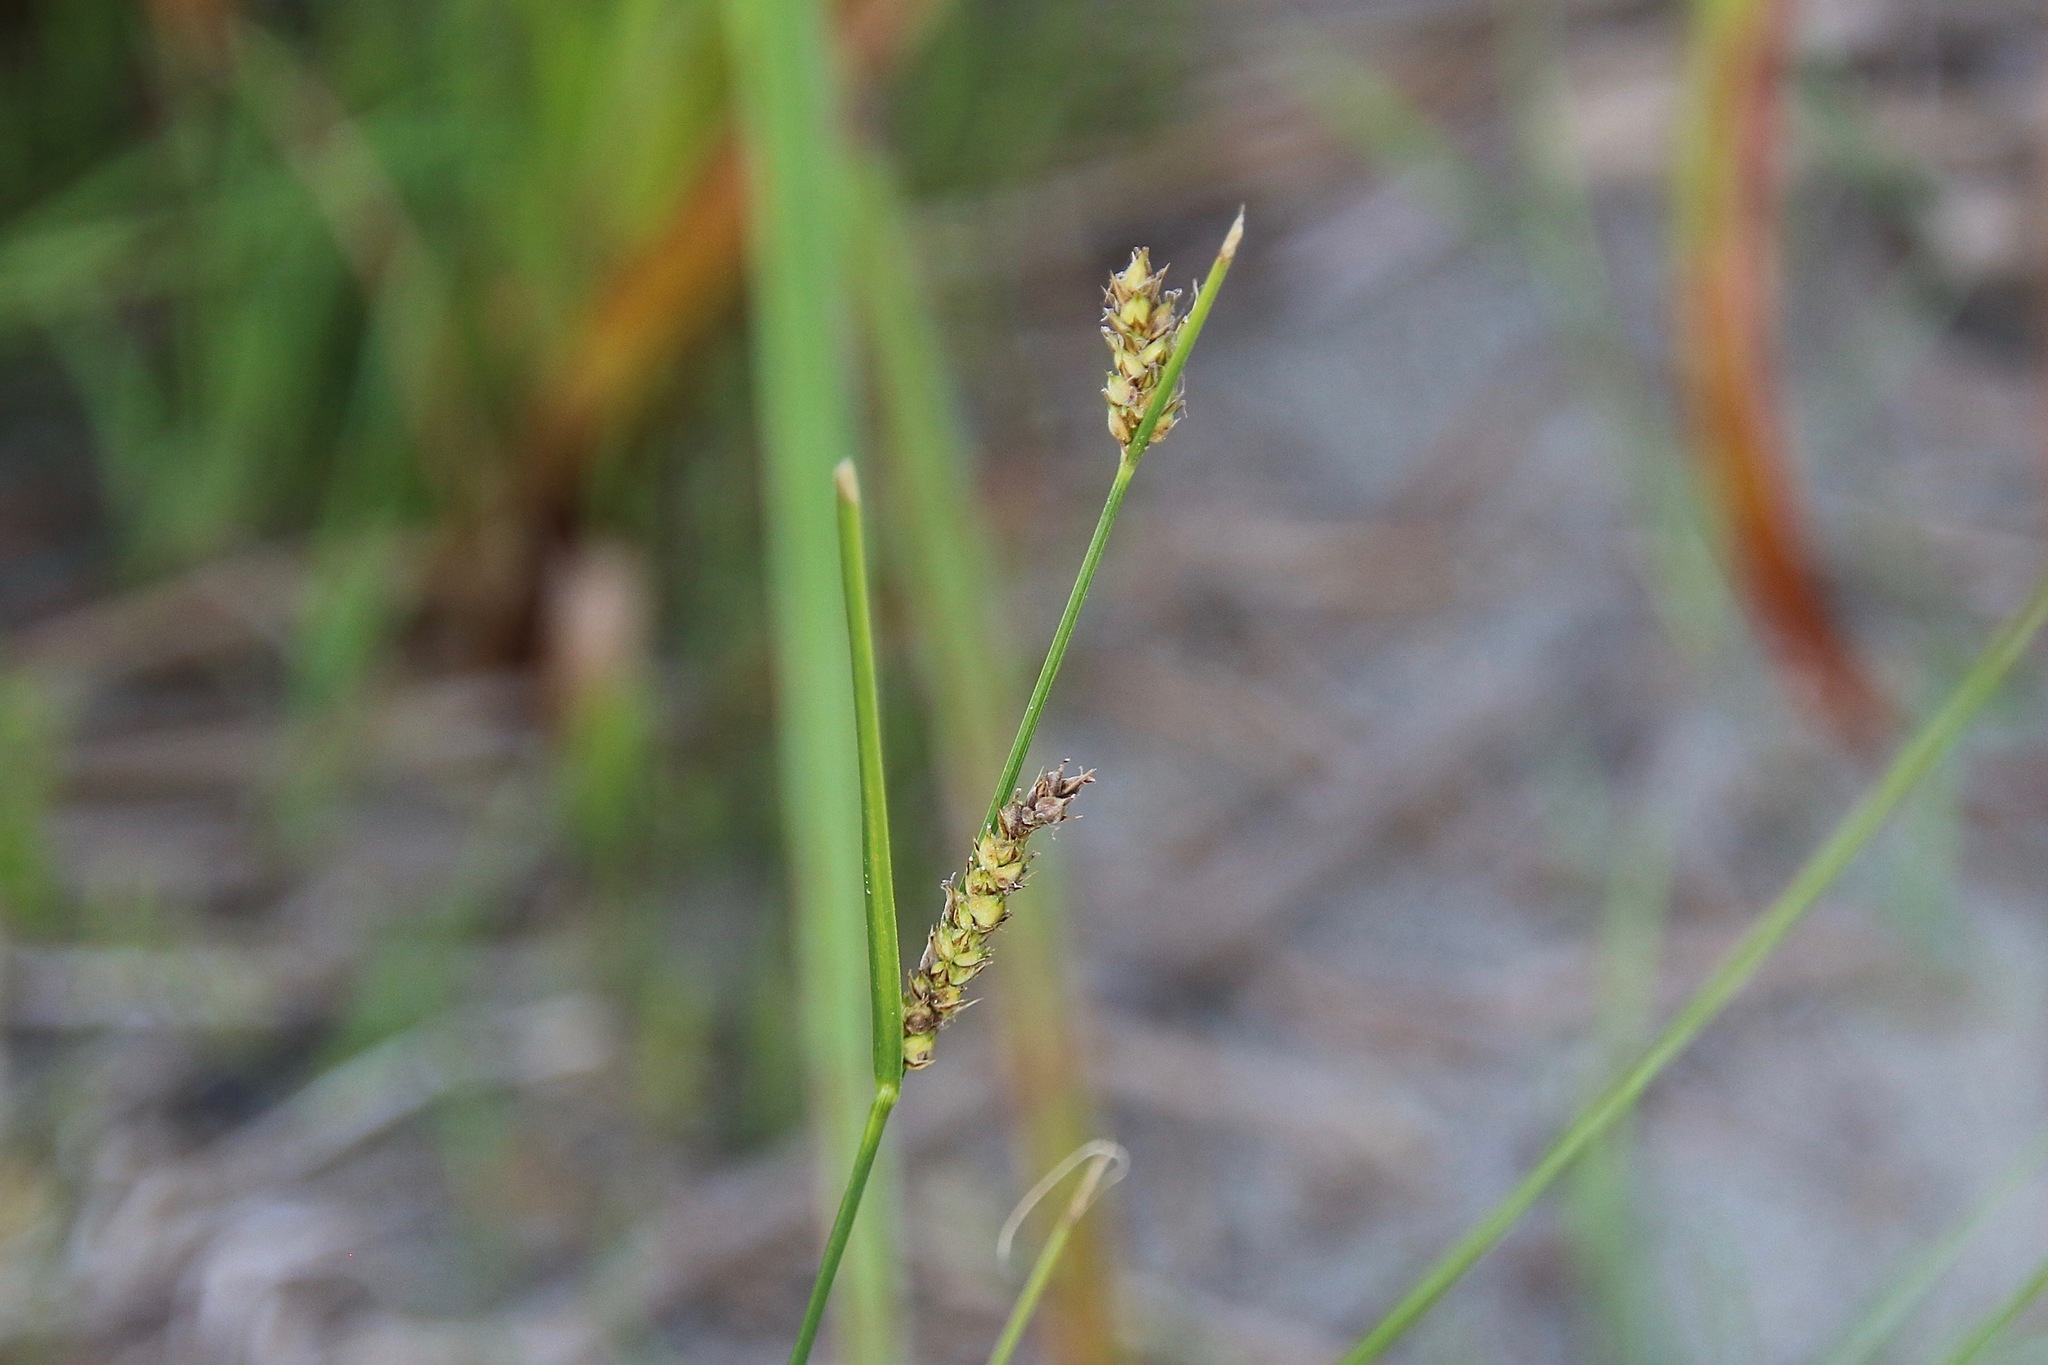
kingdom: Plantae
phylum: Tracheophyta
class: Liliopsida
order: Poales
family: Cyperaceae
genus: Carex
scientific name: Carex lasiocarpa
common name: Slender sedge
